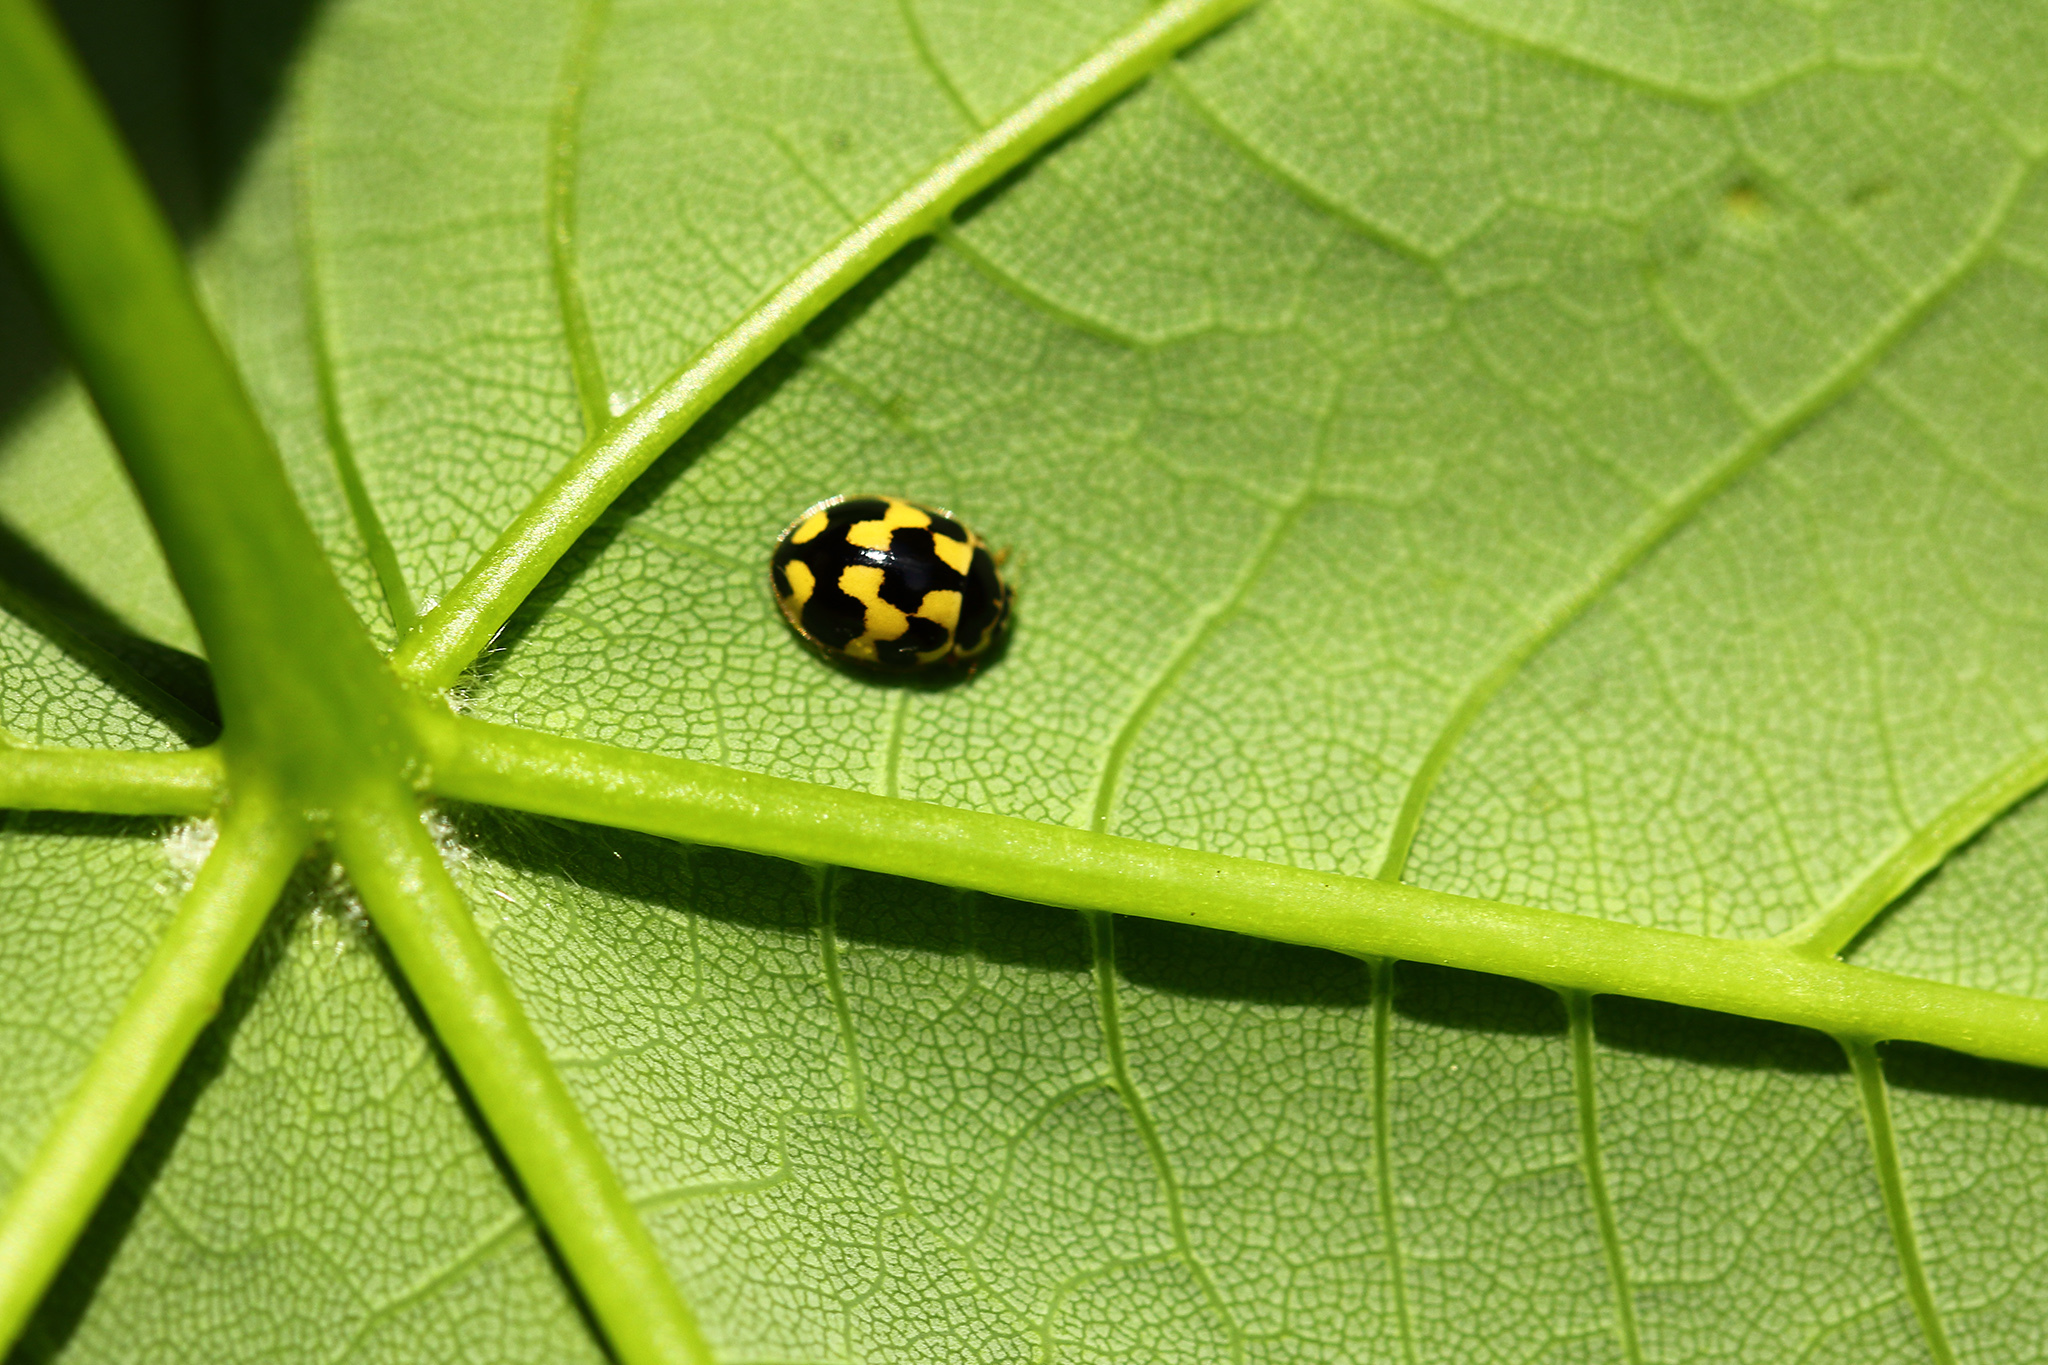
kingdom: Animalia
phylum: Arthropoda
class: Insecta
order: Coleoptera
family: Coccinellidae
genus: Propylaea
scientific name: Propylaea quatuordecimpunctata
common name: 14-spotted ladybird beetle
